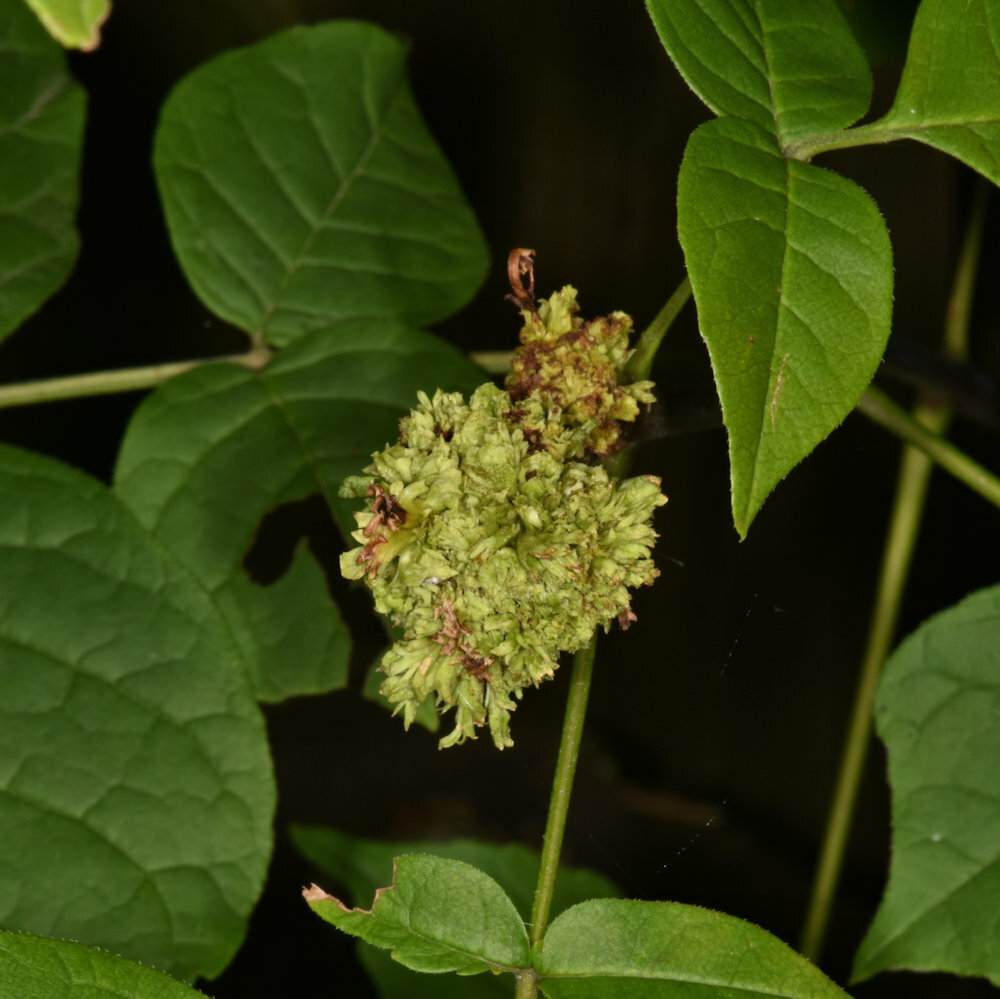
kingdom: Animalia
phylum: Arthropoda
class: Arachnida
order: Trombidiformes
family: Eriophyidae
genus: Aceria
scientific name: Aceria fraxiniflora
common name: Ash flower gall mite
